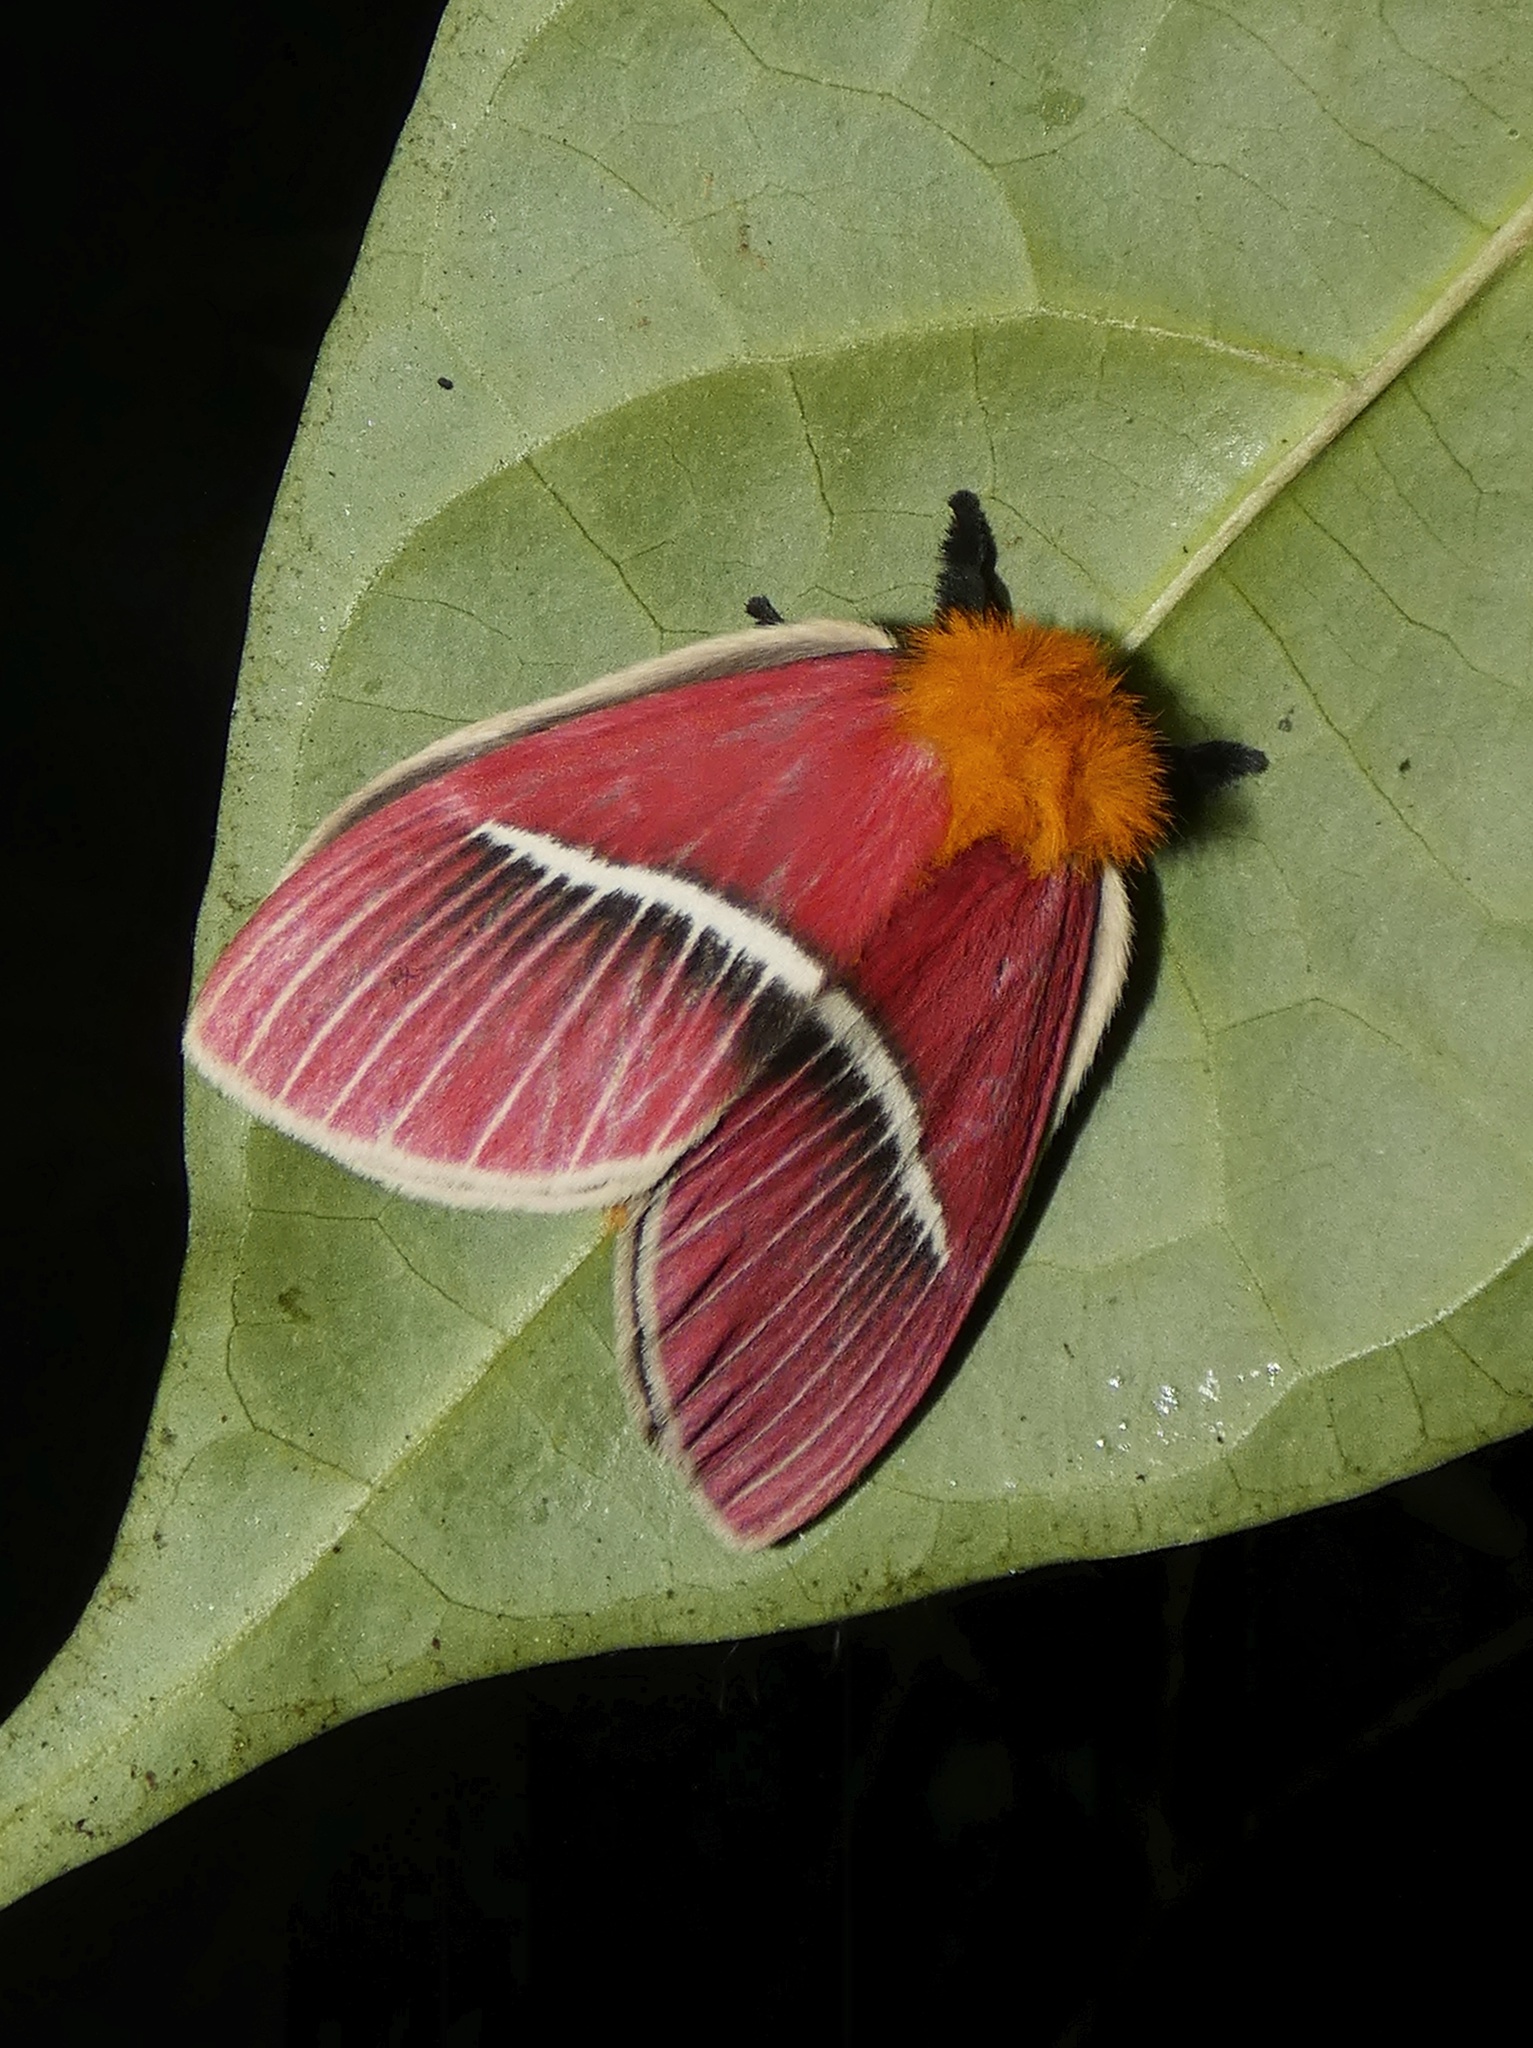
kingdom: Animalia
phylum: Arthropoda
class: Insecta
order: Lepidoptera
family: Saturniidae
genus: Pseudodirphia
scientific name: Pseudodirphia menander
